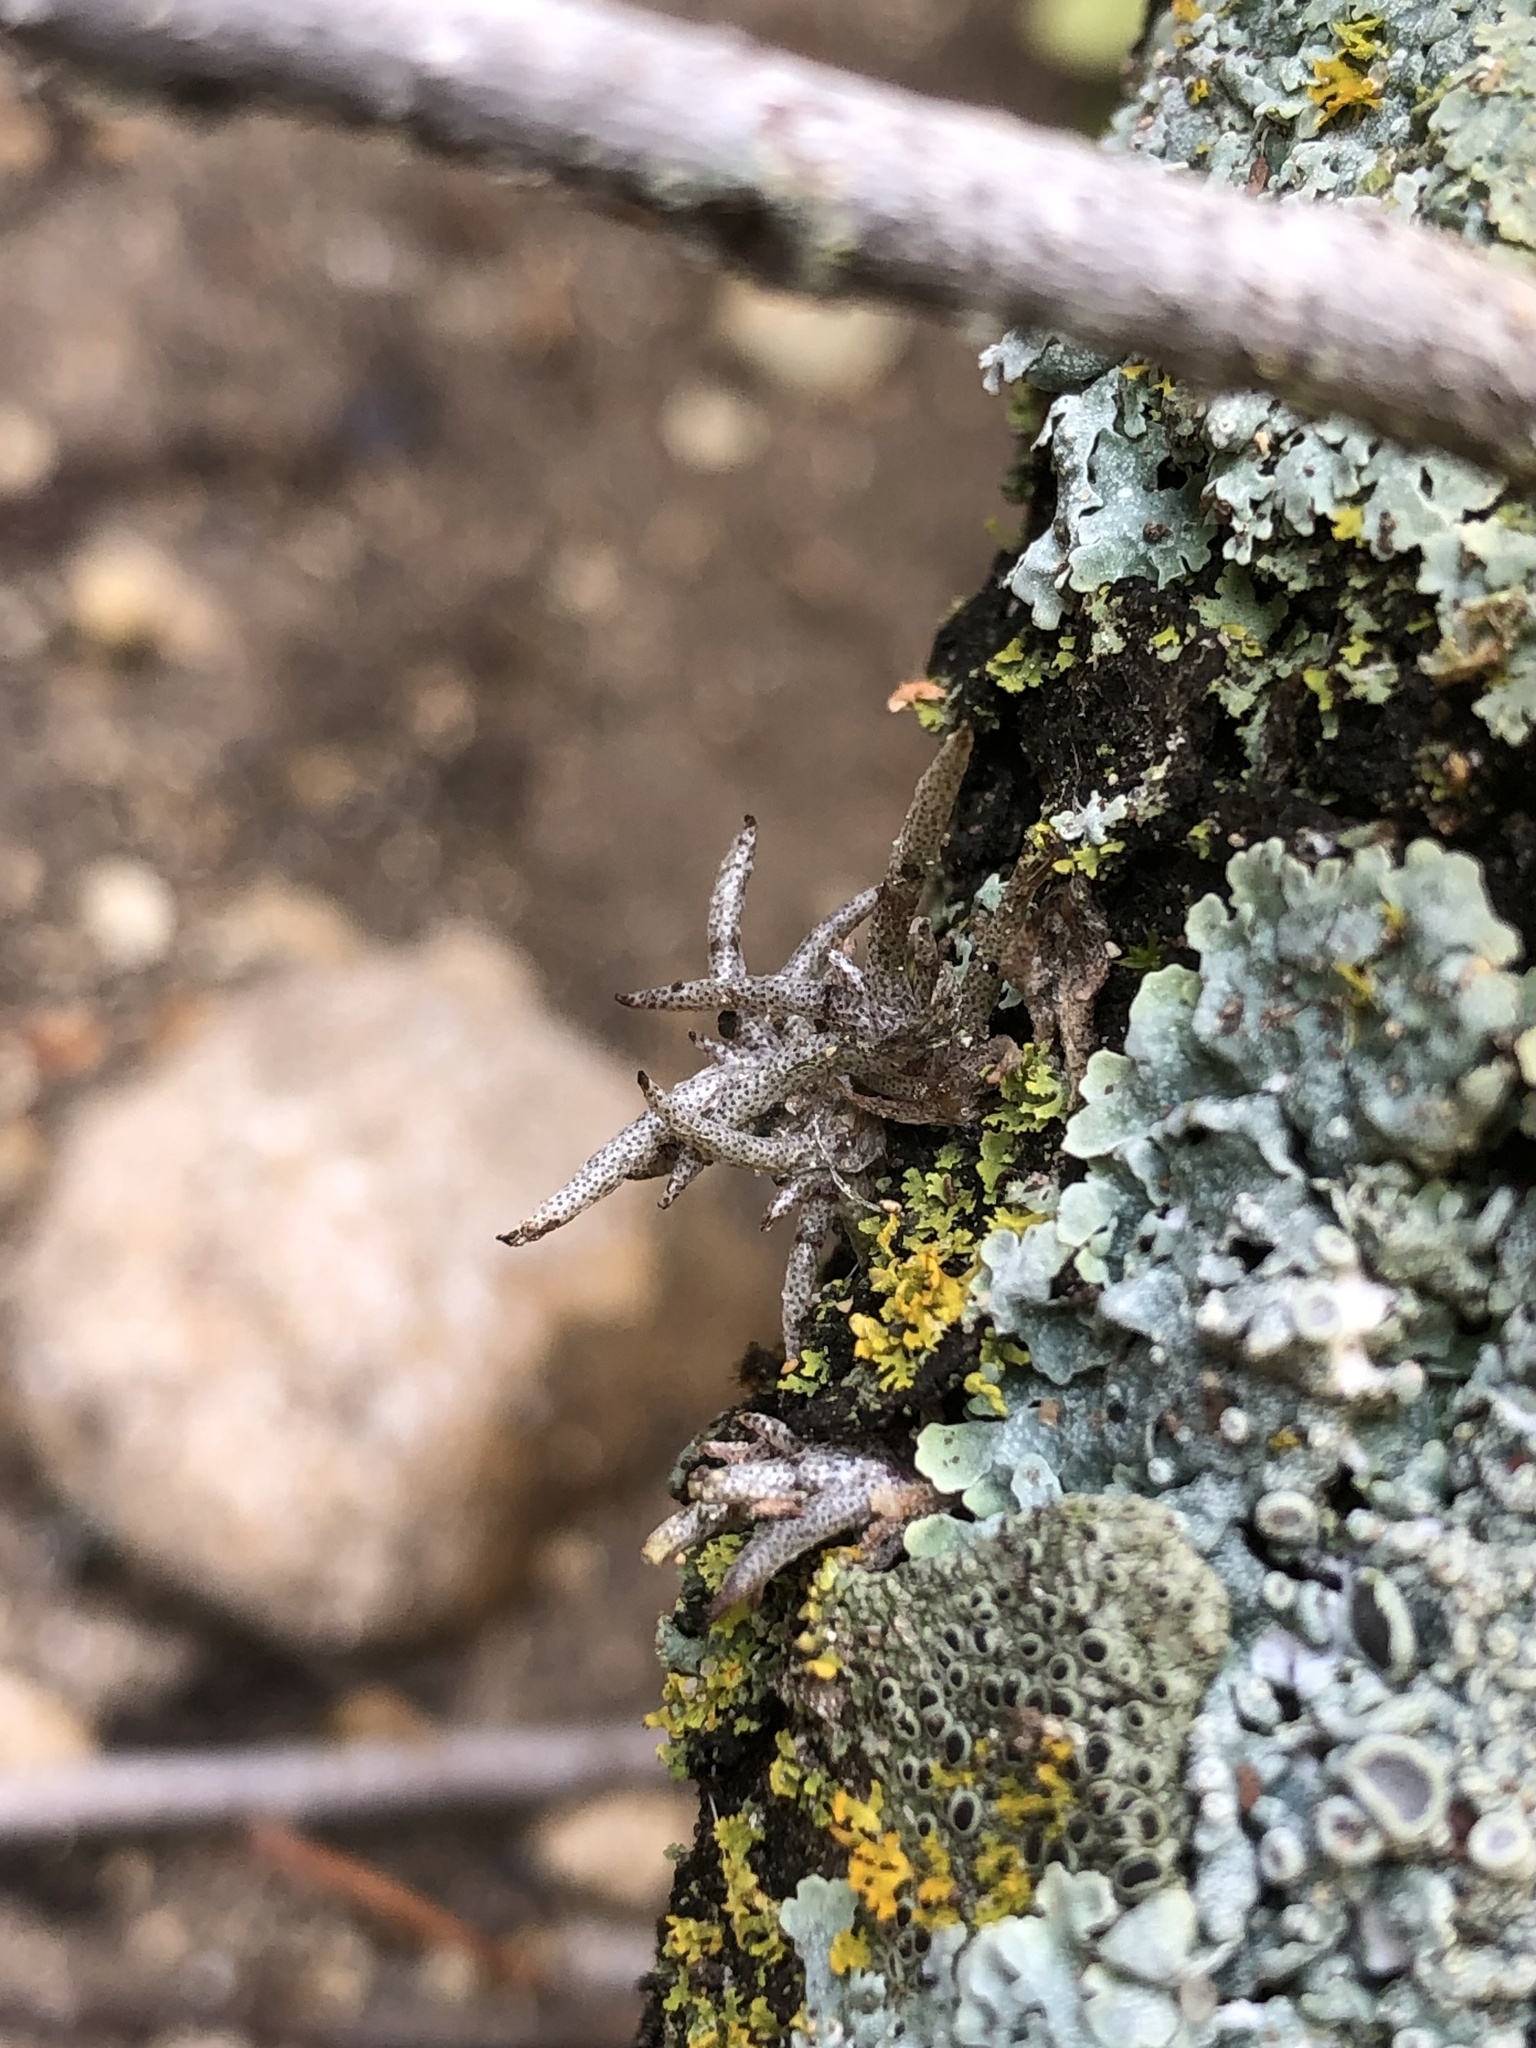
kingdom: Plantae
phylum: Tracheophyta
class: Liliopsida
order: Poales
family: Bromeliaceae
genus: Tillandsia
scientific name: Tillandsia recurvata
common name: Small ballmoss
